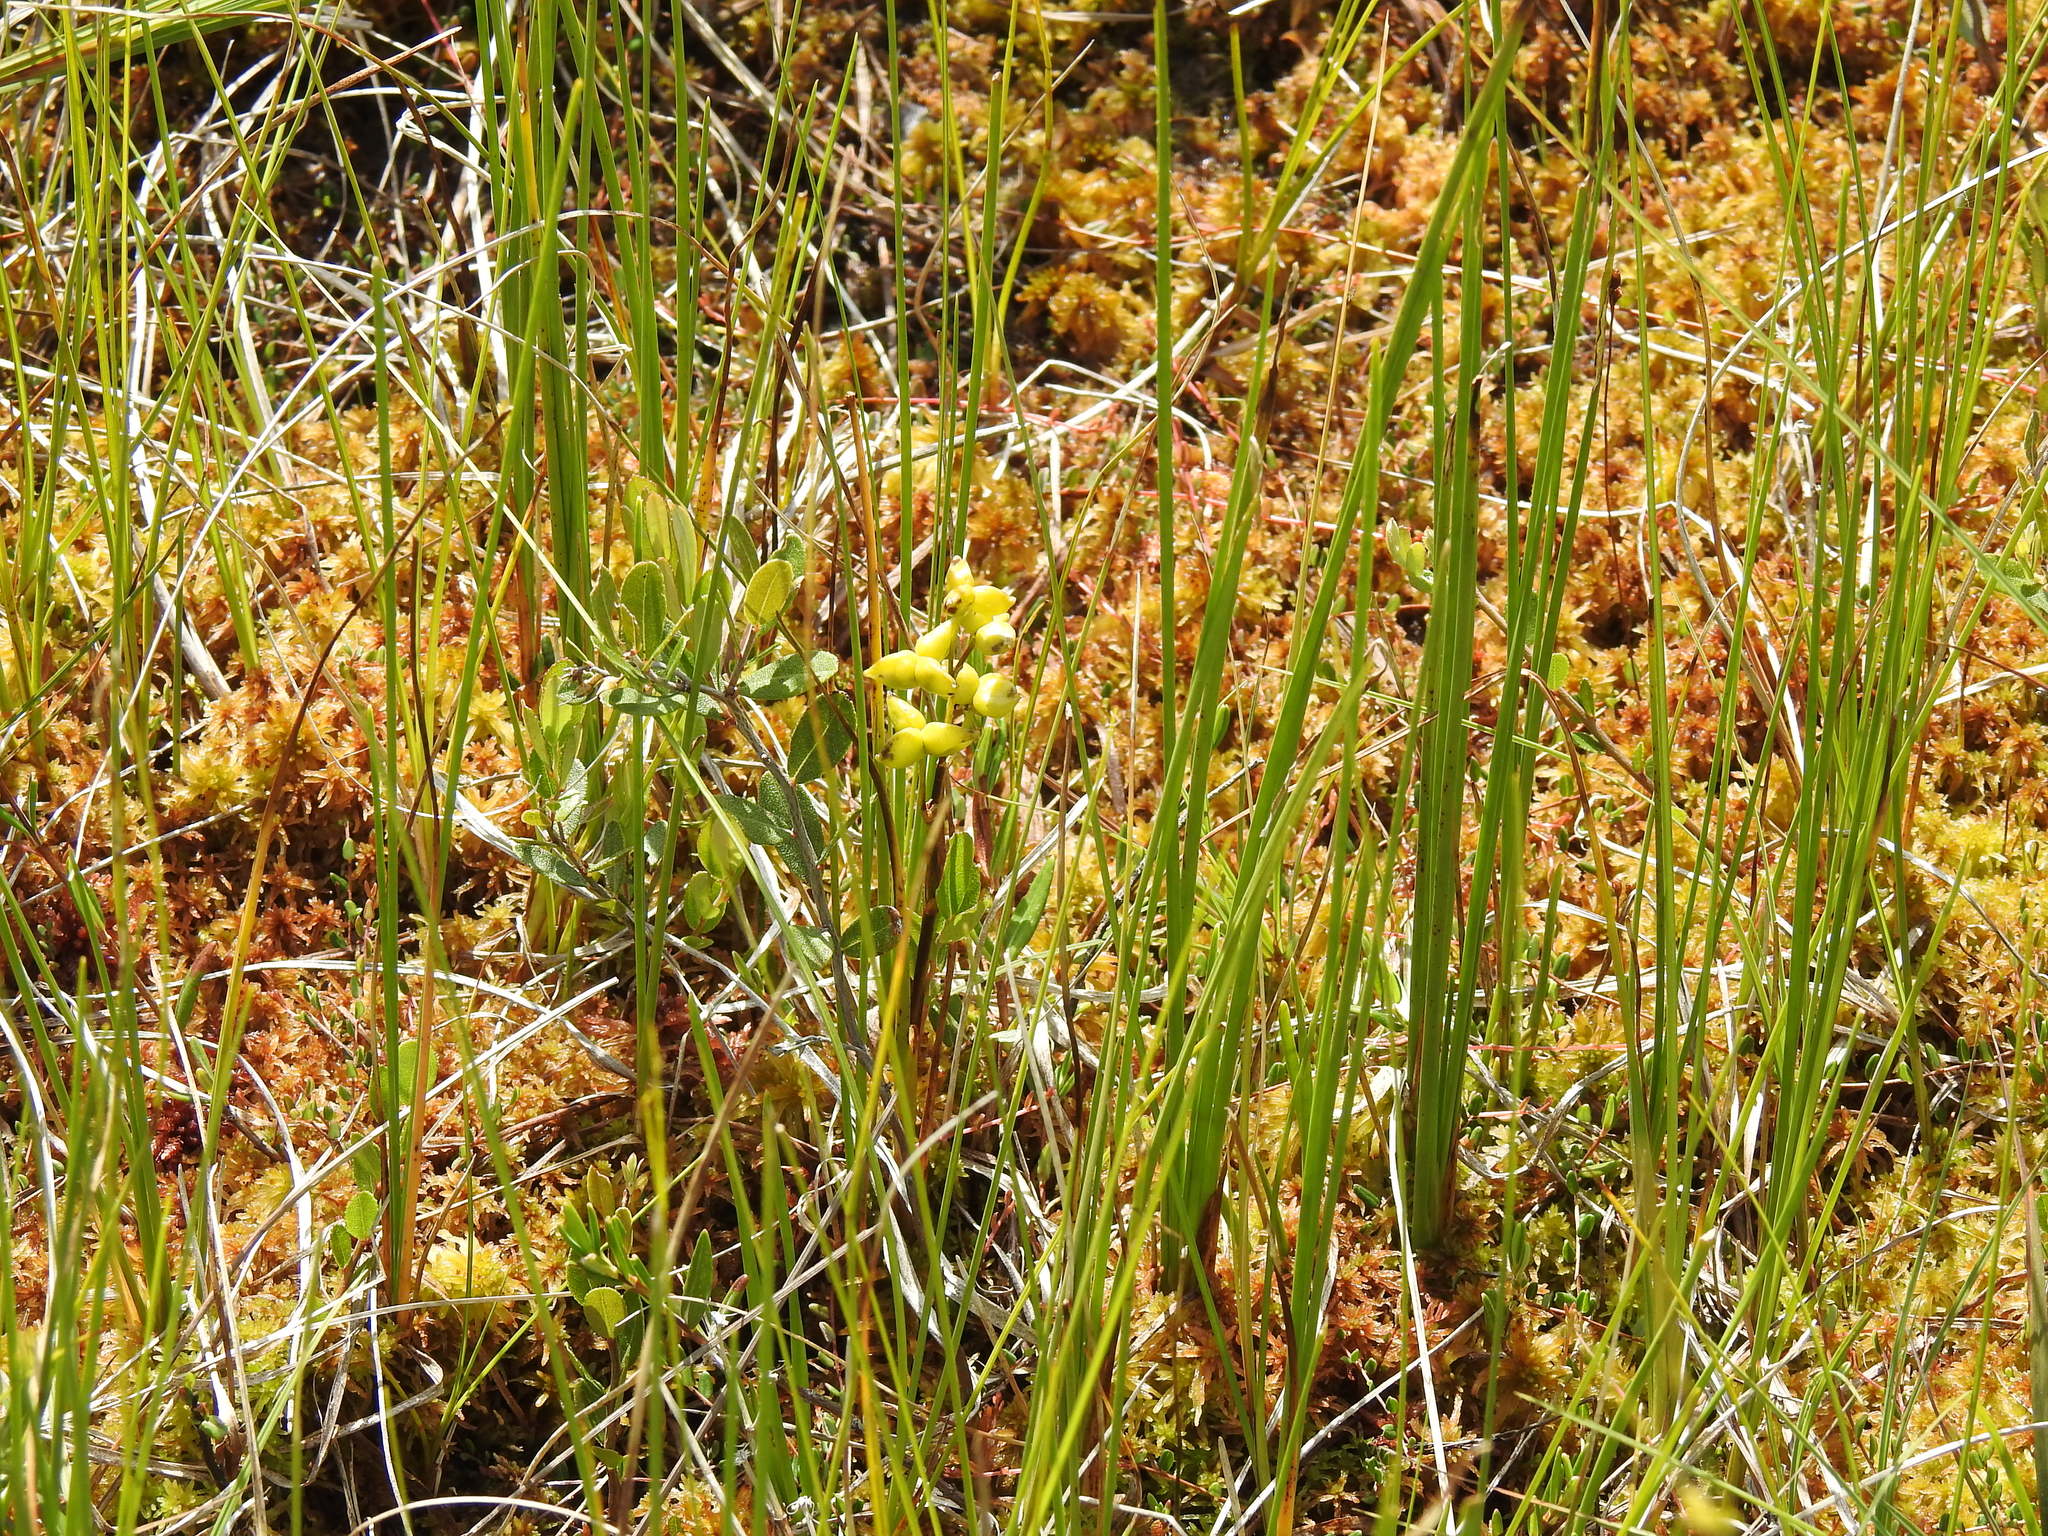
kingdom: Plantae
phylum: Tracheophyta
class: Liliopsida
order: Alismatales
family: Scheuchzeriaceae
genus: Scheuchzeria
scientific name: Scheuchzeria palustris
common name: Rannoch-rush
